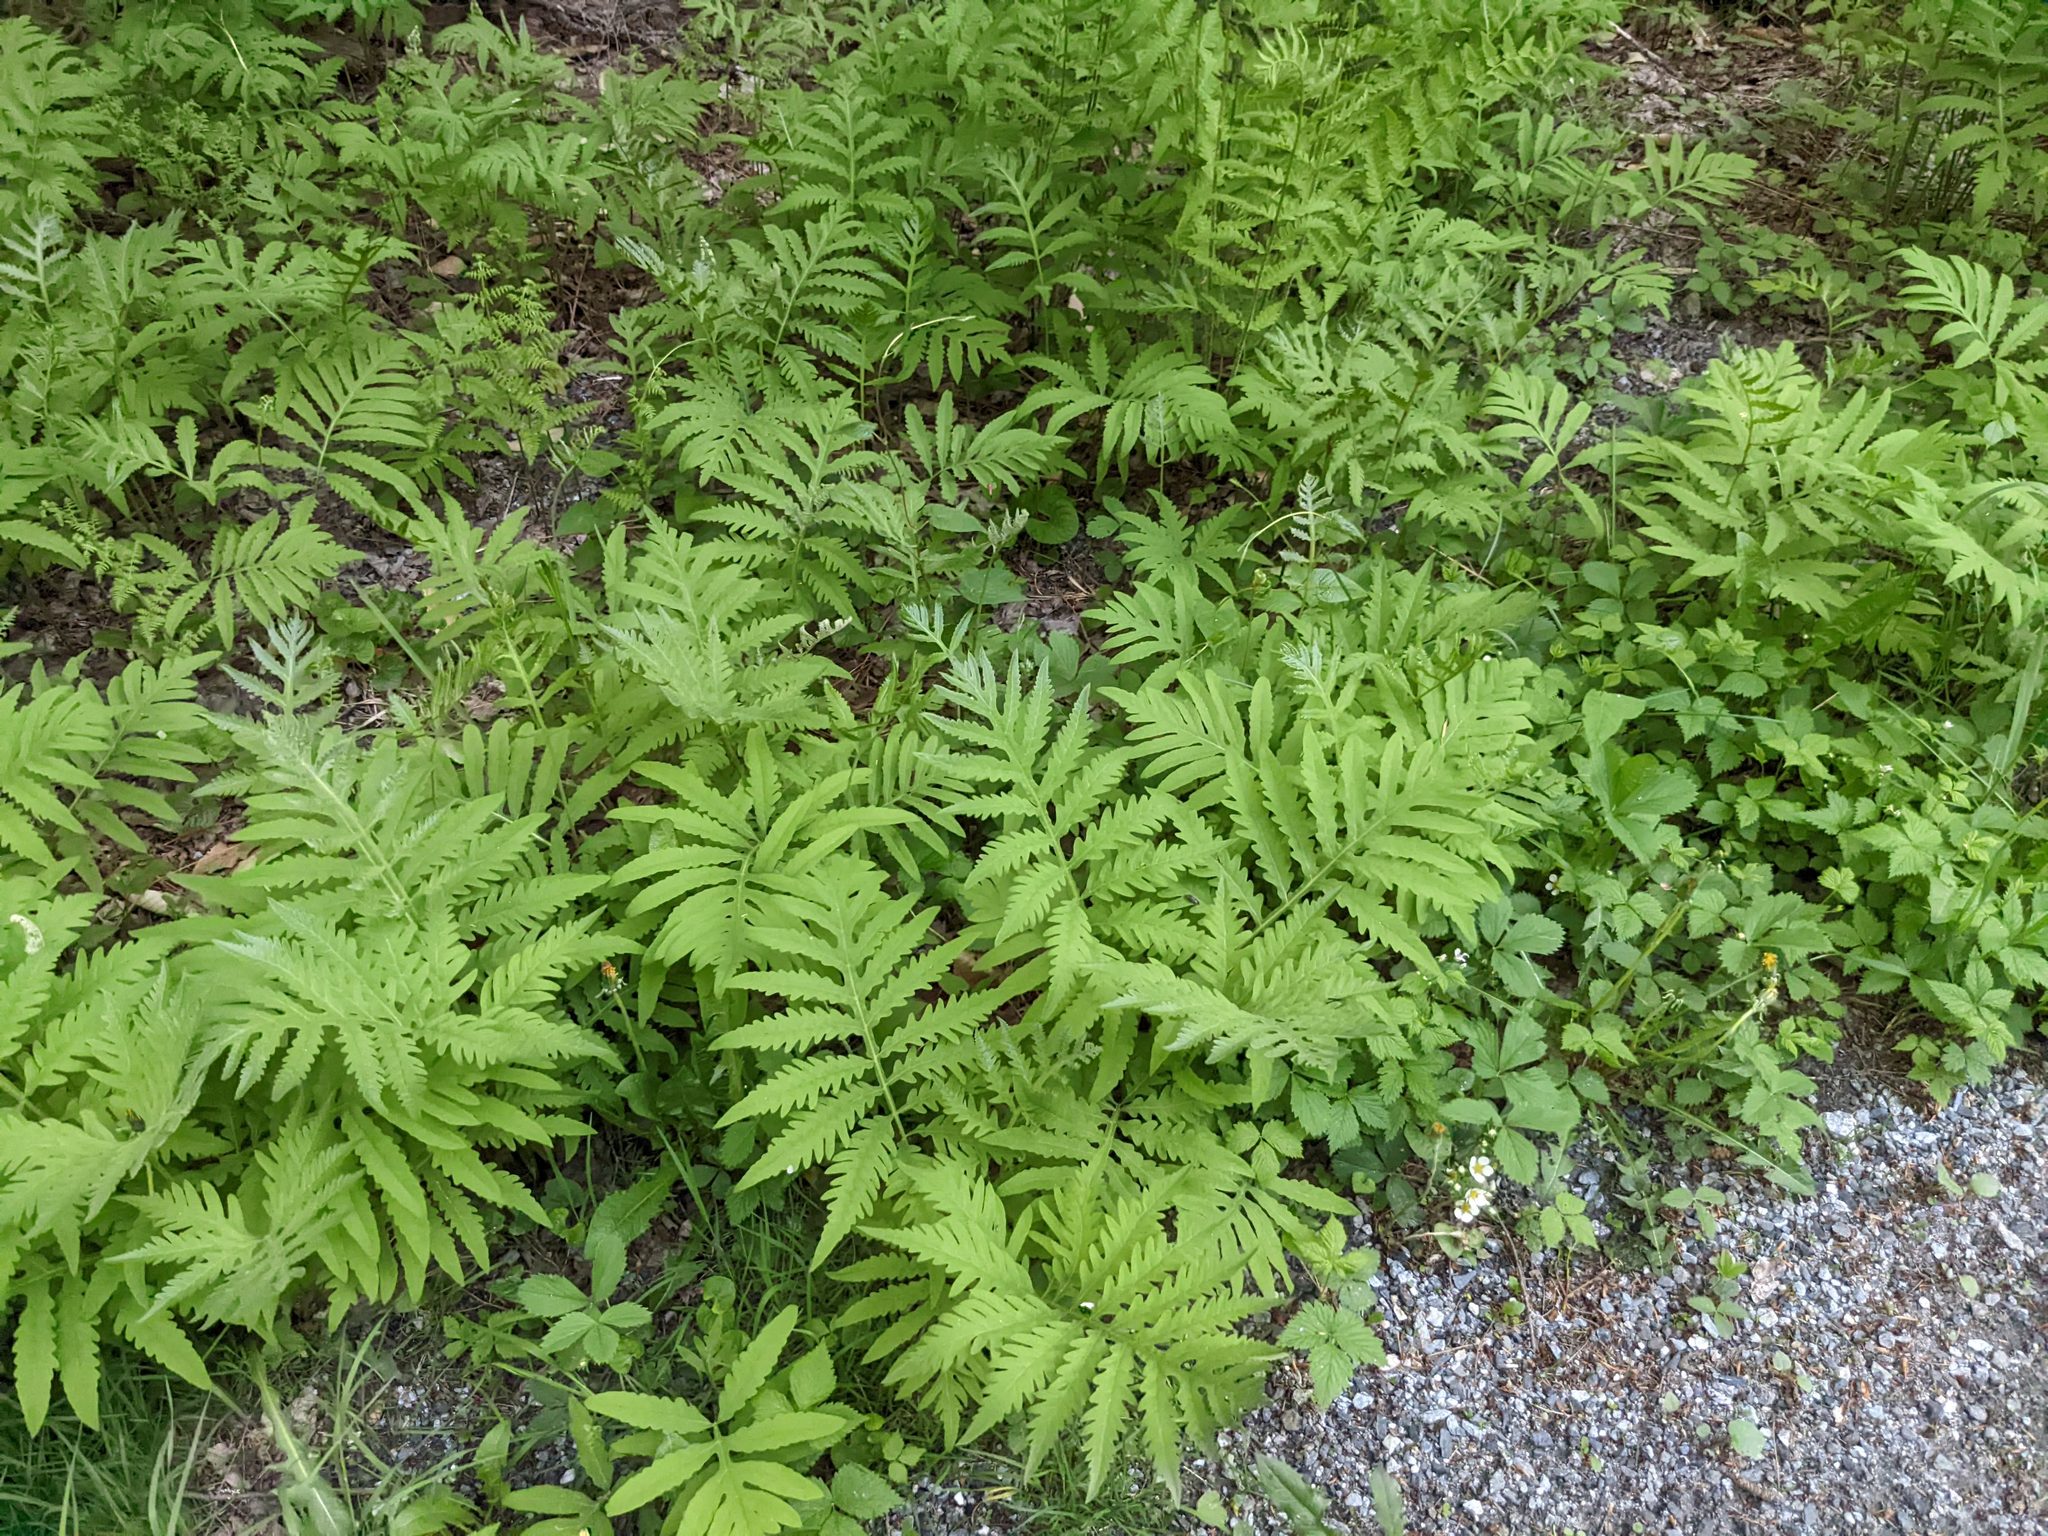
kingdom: Plantae
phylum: Tracheophyta
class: Polypodiopsida
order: Polypodiales
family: Onocleaceae
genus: Onoclea
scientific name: Onoclea sensibilis
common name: Sensitive fern
